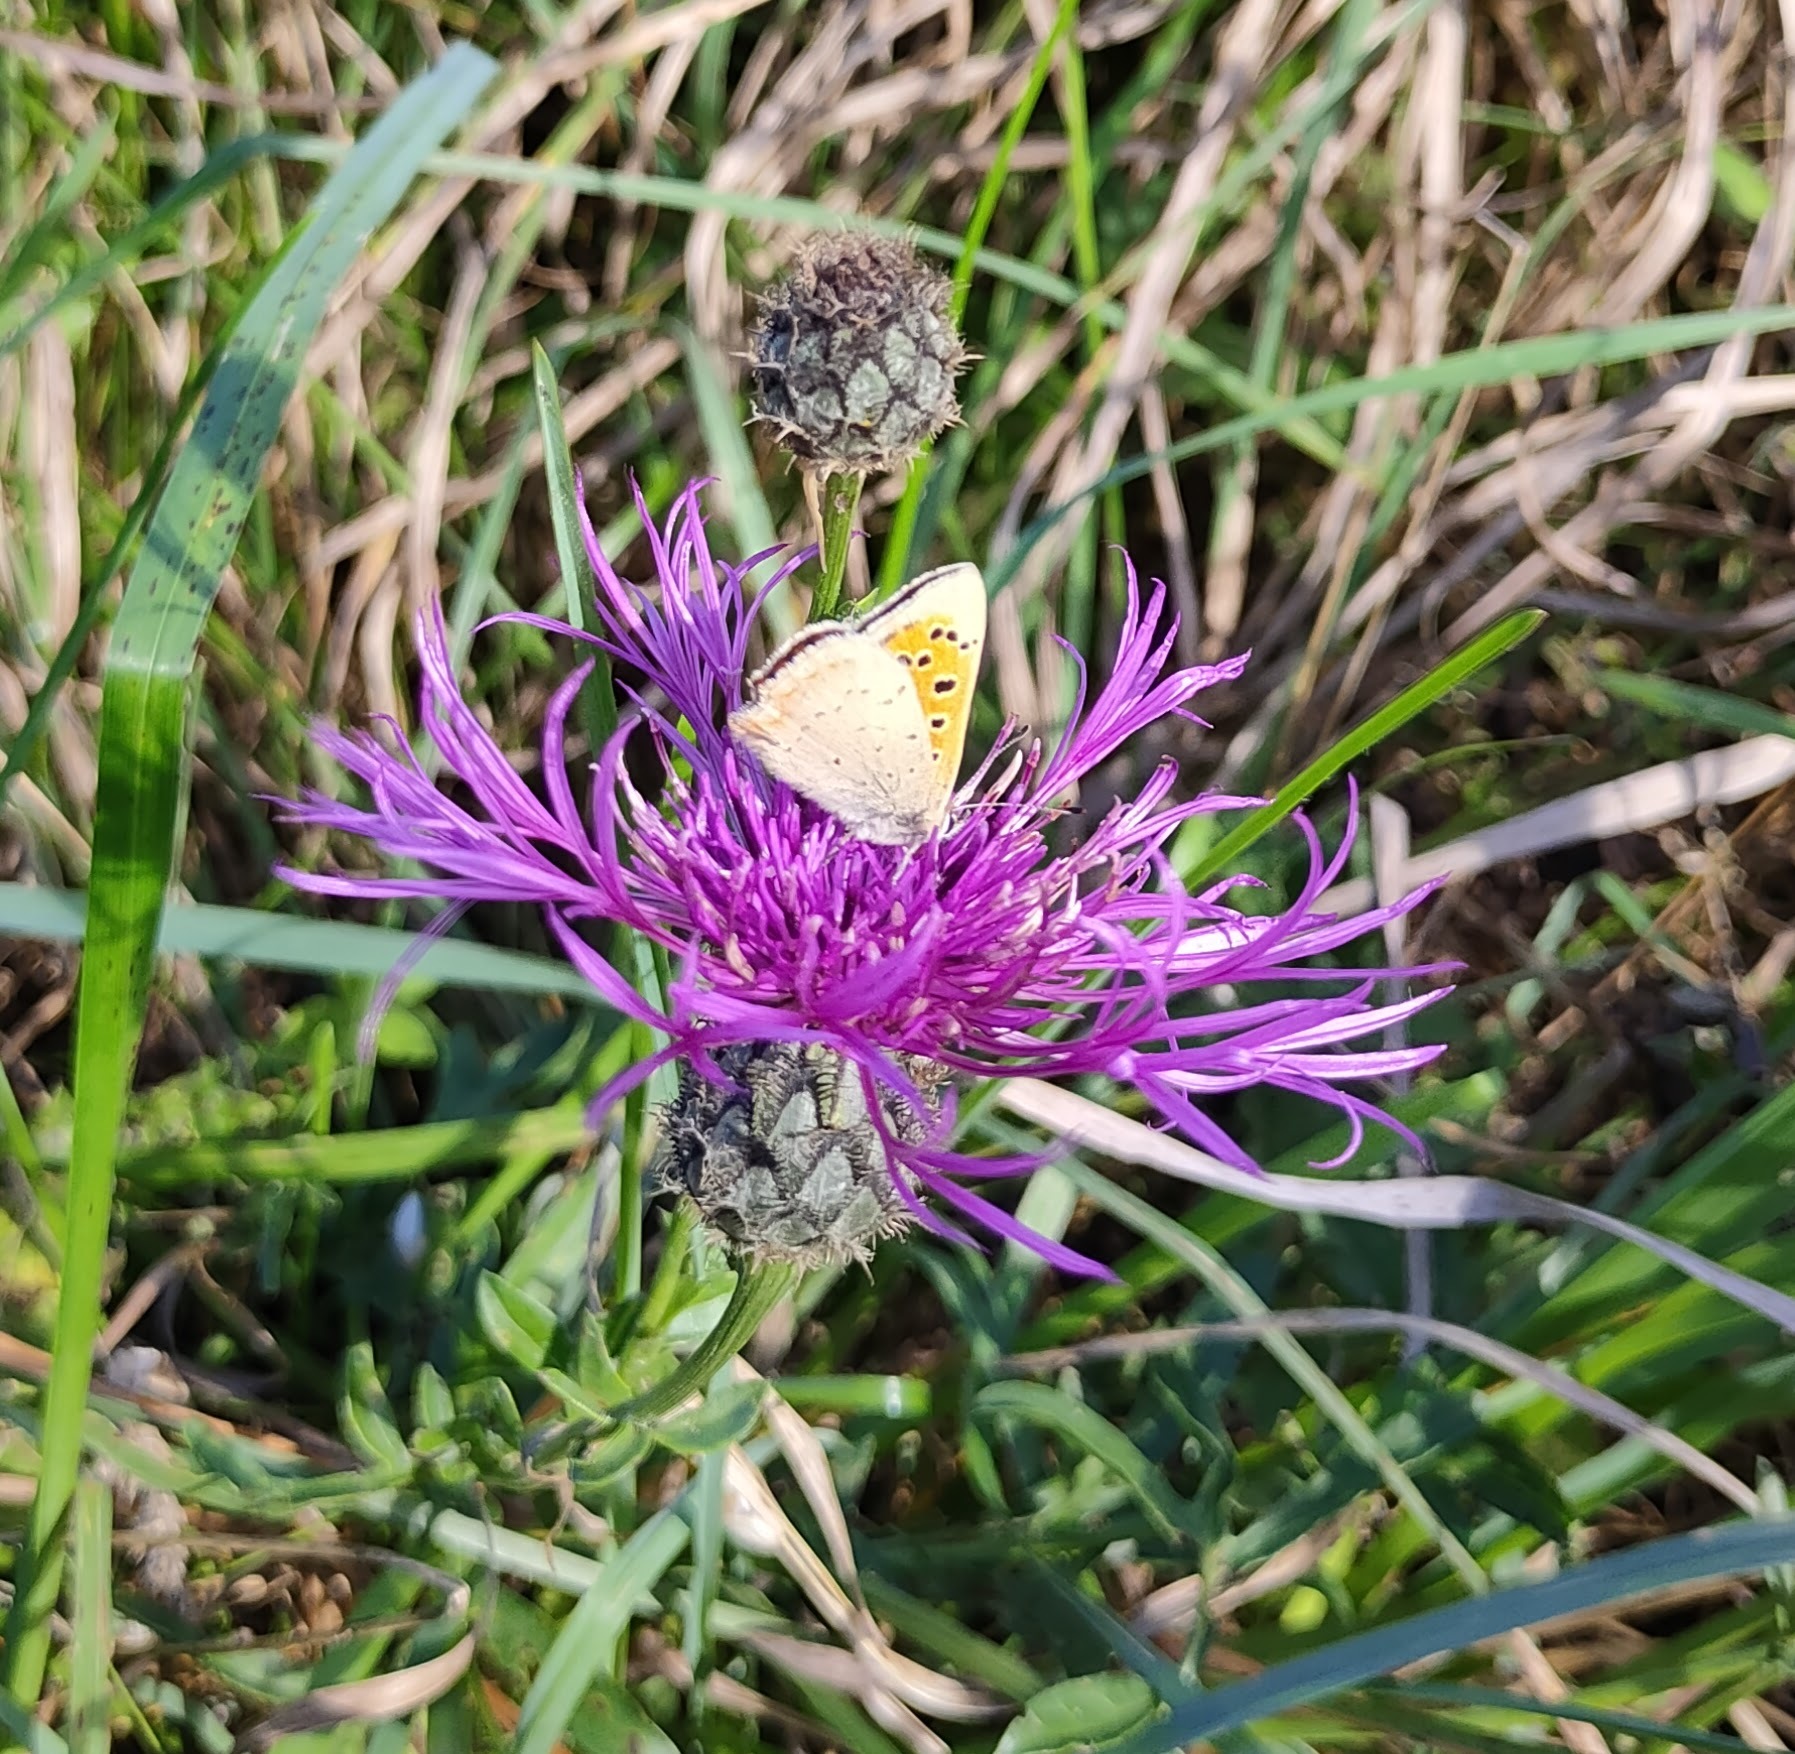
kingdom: Animalia
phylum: Arthropoda
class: Insecta
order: Lepidoptera
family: Lycaenidae
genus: Lycaena
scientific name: Lycaena phlaeas
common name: Small copper
